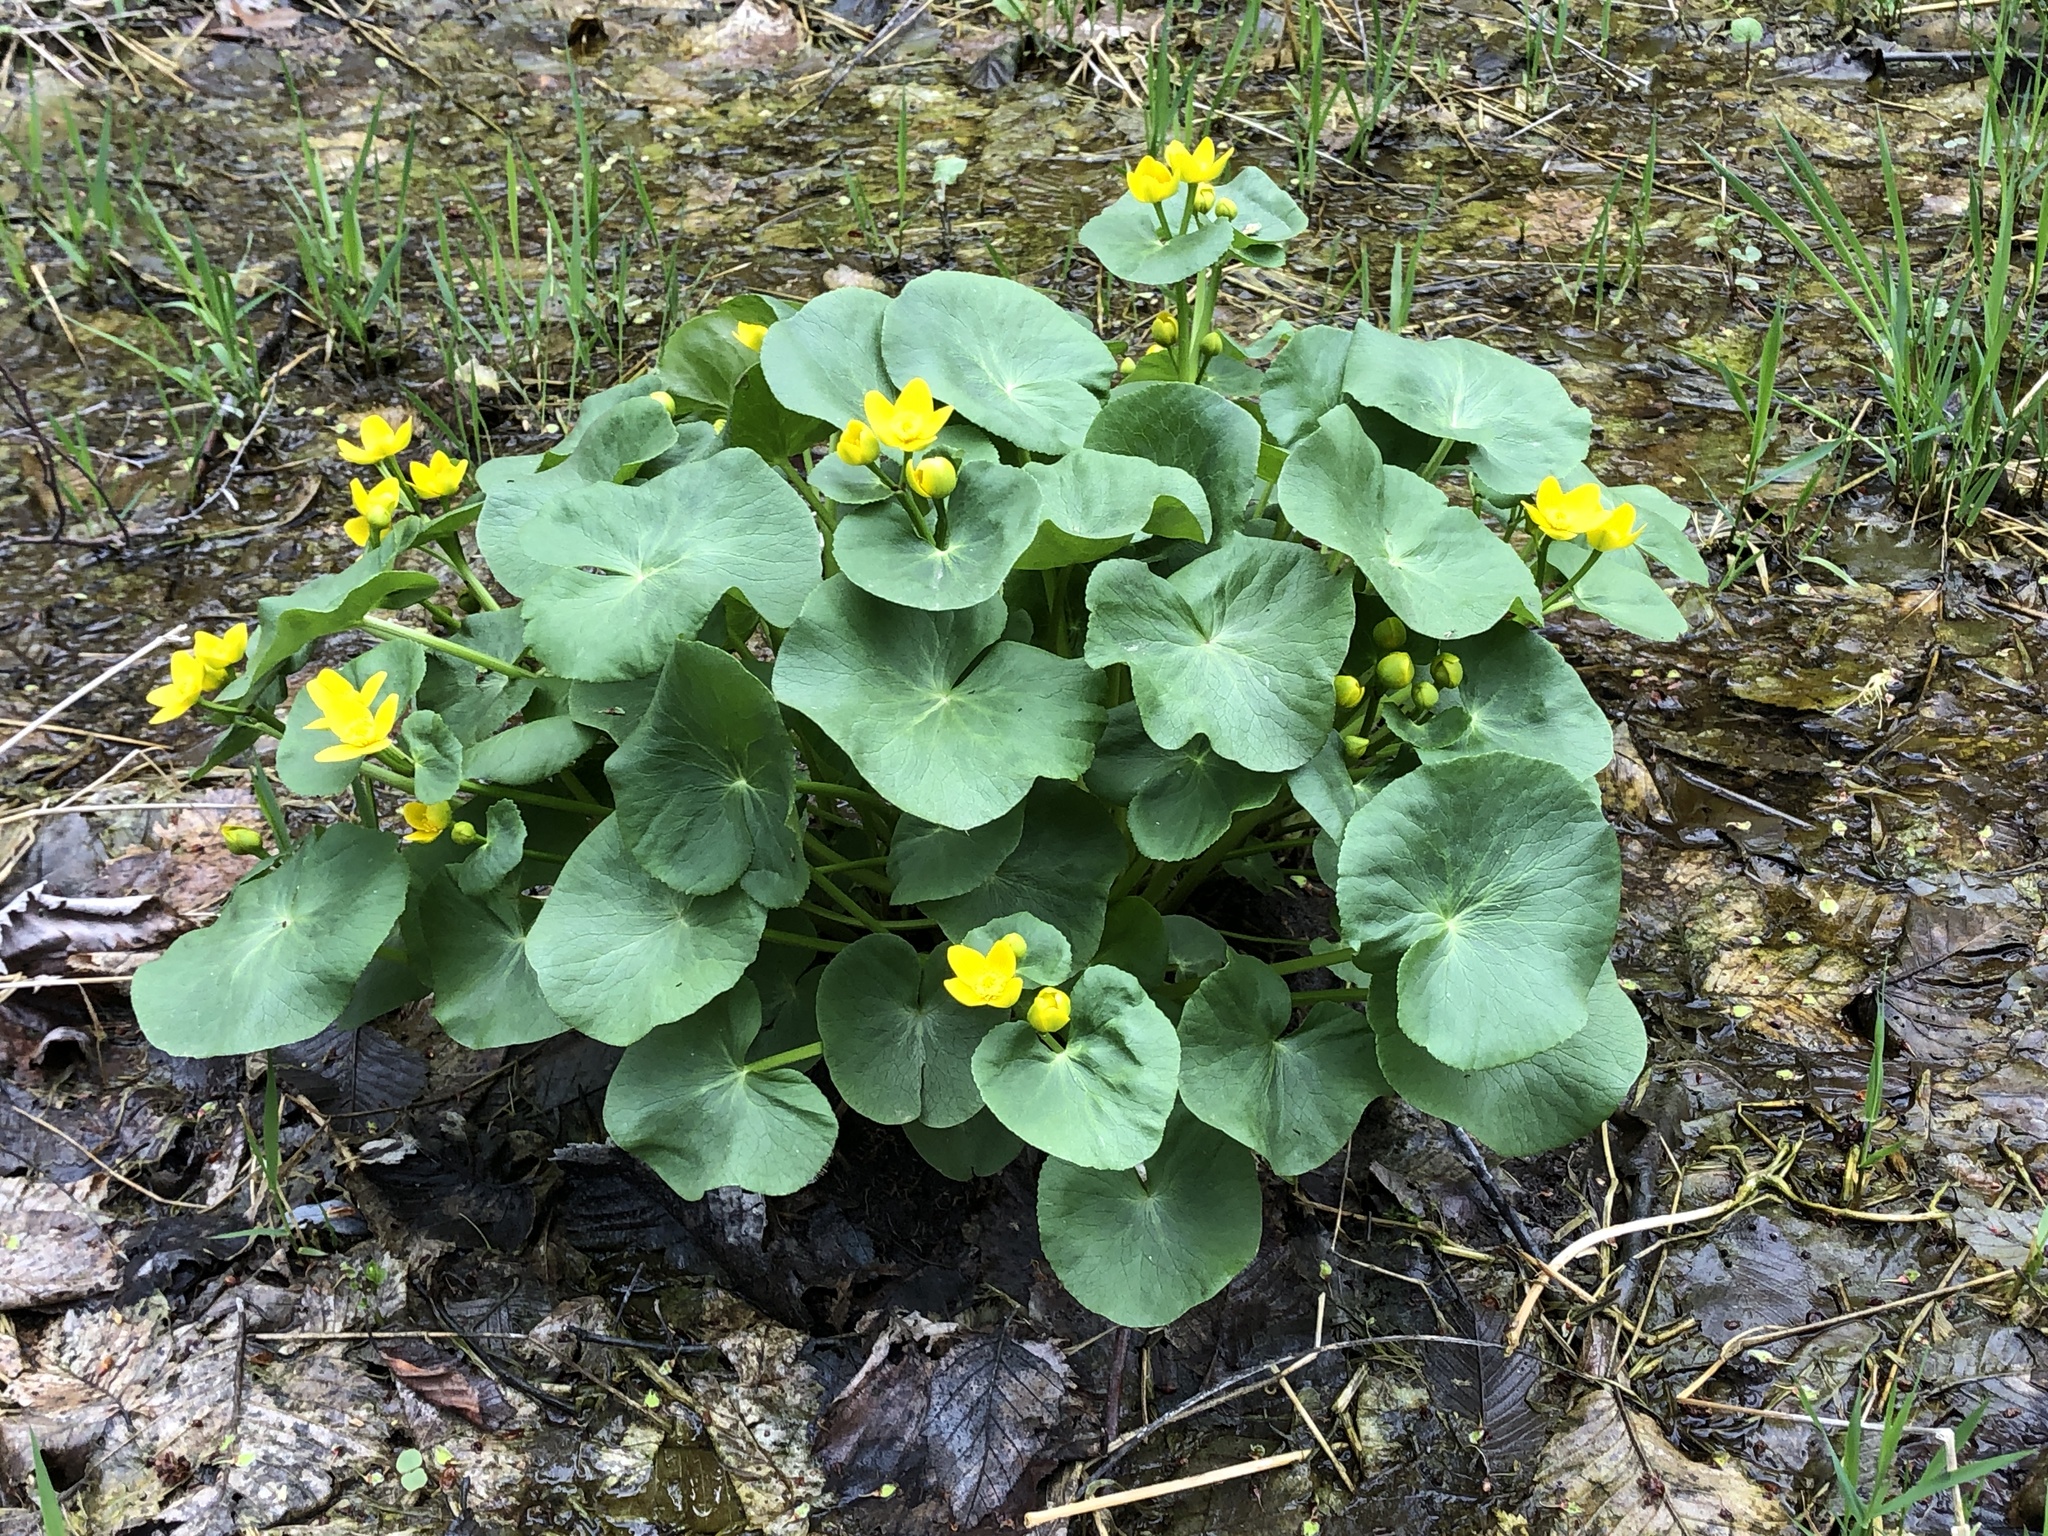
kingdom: Plantae
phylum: Tracheophyta
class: Magnoliopsida
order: Ranunculales
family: Ranunculaceae
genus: Caltha
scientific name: Caltha palustris
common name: Marsh marigold
